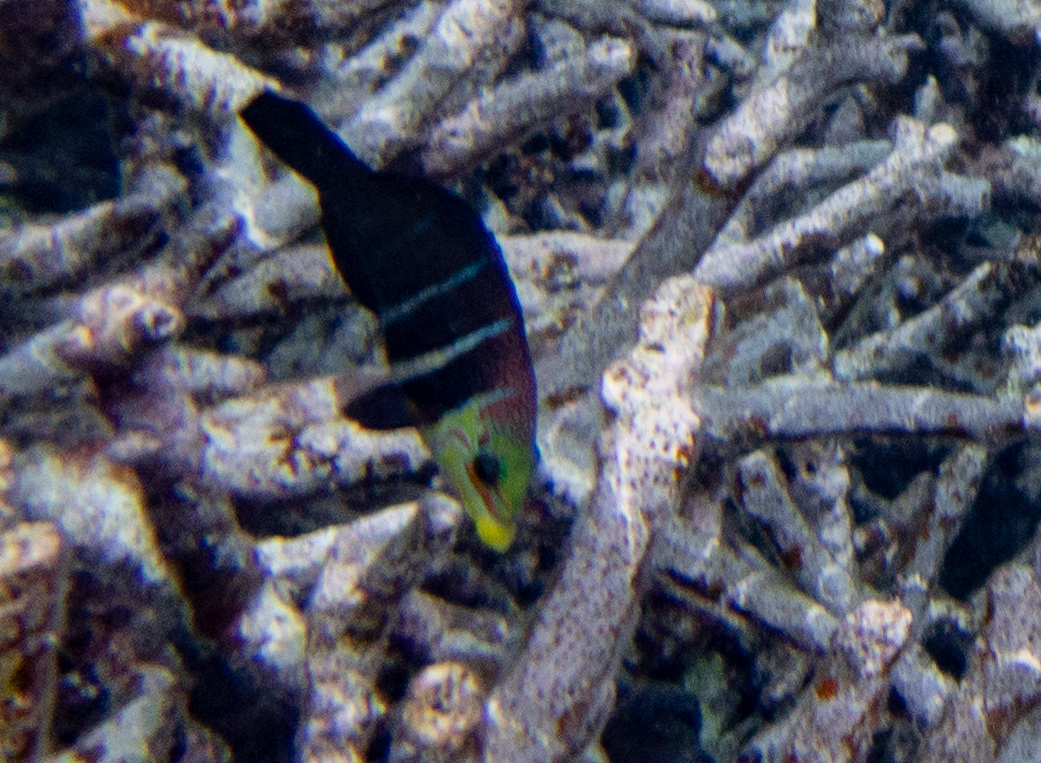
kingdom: Animalia
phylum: Chordata
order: Perciformes
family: Labridae
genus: Hemigymnus
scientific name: Hemigymnus fasciatus
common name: Barred thicklip
